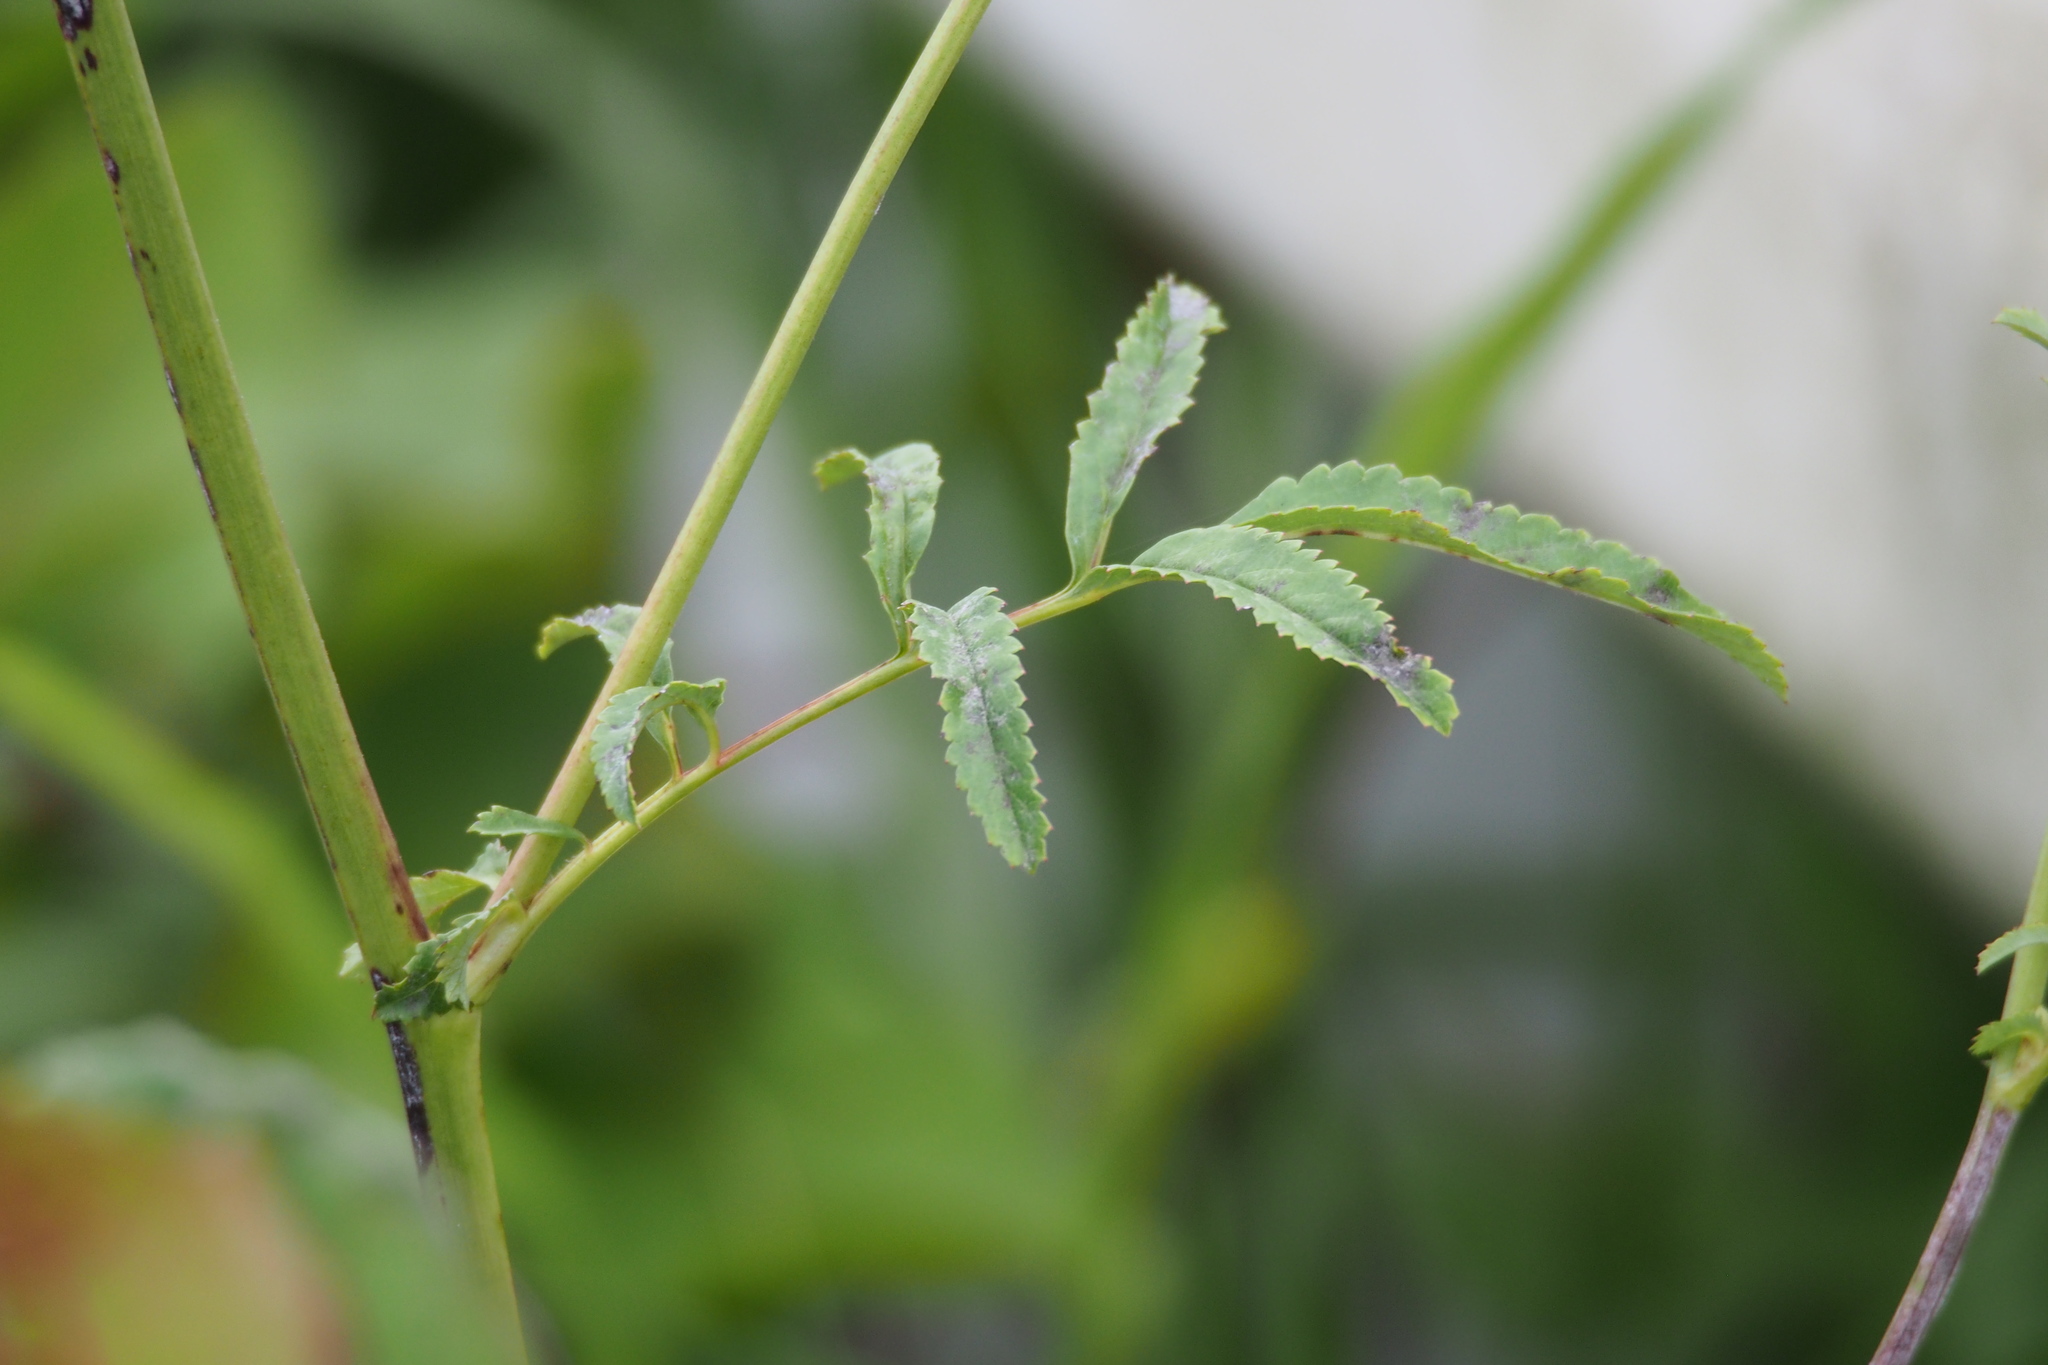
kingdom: Plantae
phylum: Tracheophyta
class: Magnoliopsida
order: Rosales
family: Rosaceae
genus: Sanguisorba
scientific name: Sanguisorba officinalis
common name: Great burnet
